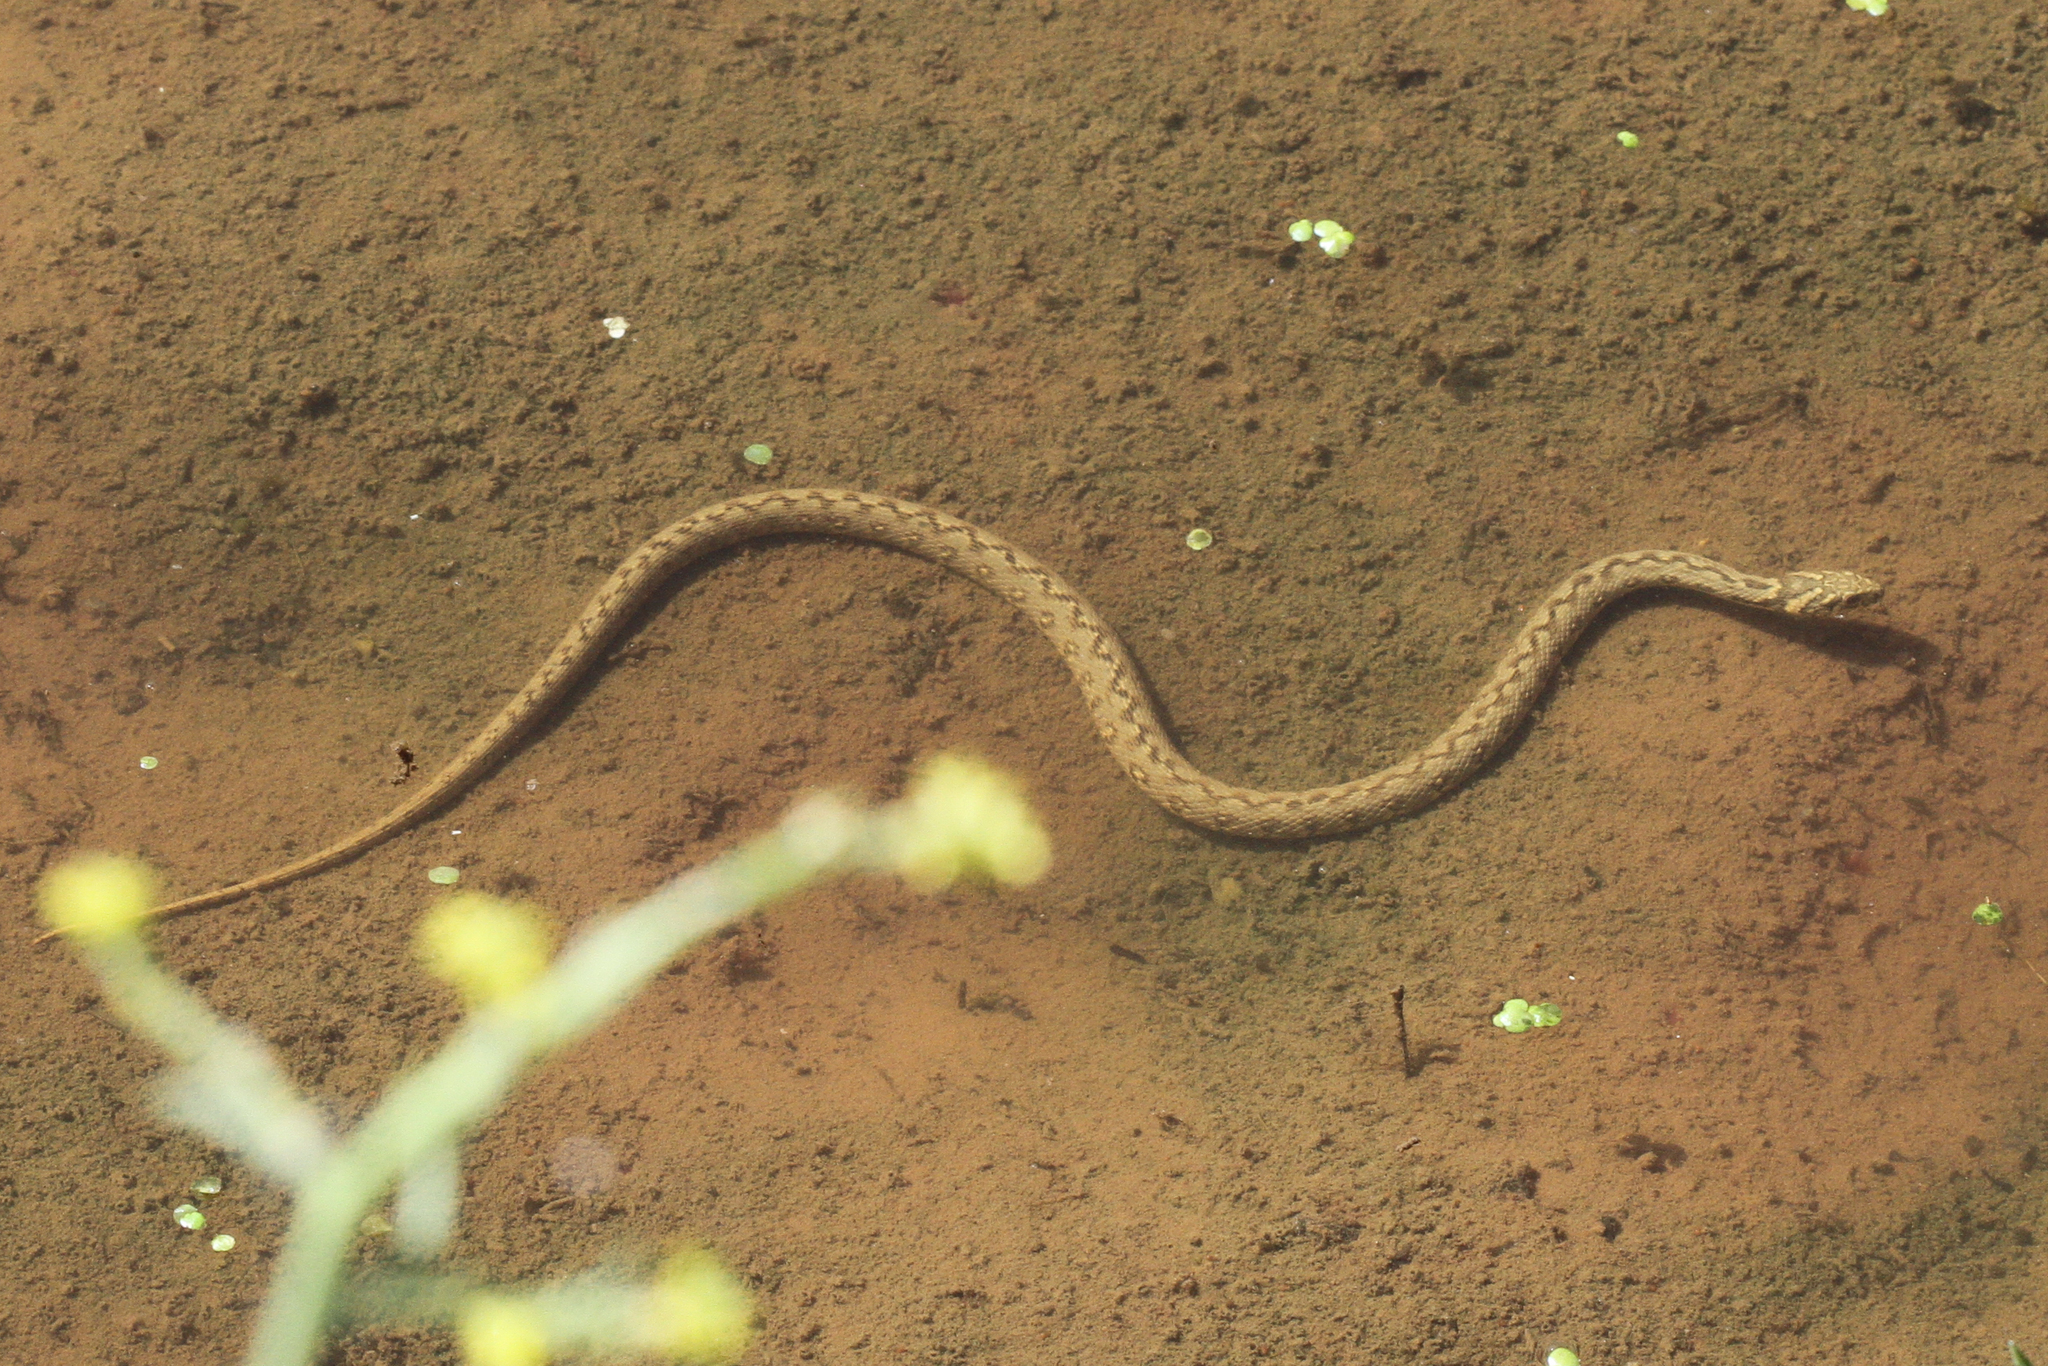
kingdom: Animalia
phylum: Chordata
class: Squamata
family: Colubridae
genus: Natrix
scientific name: Natrix maura
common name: Viperine water snake
